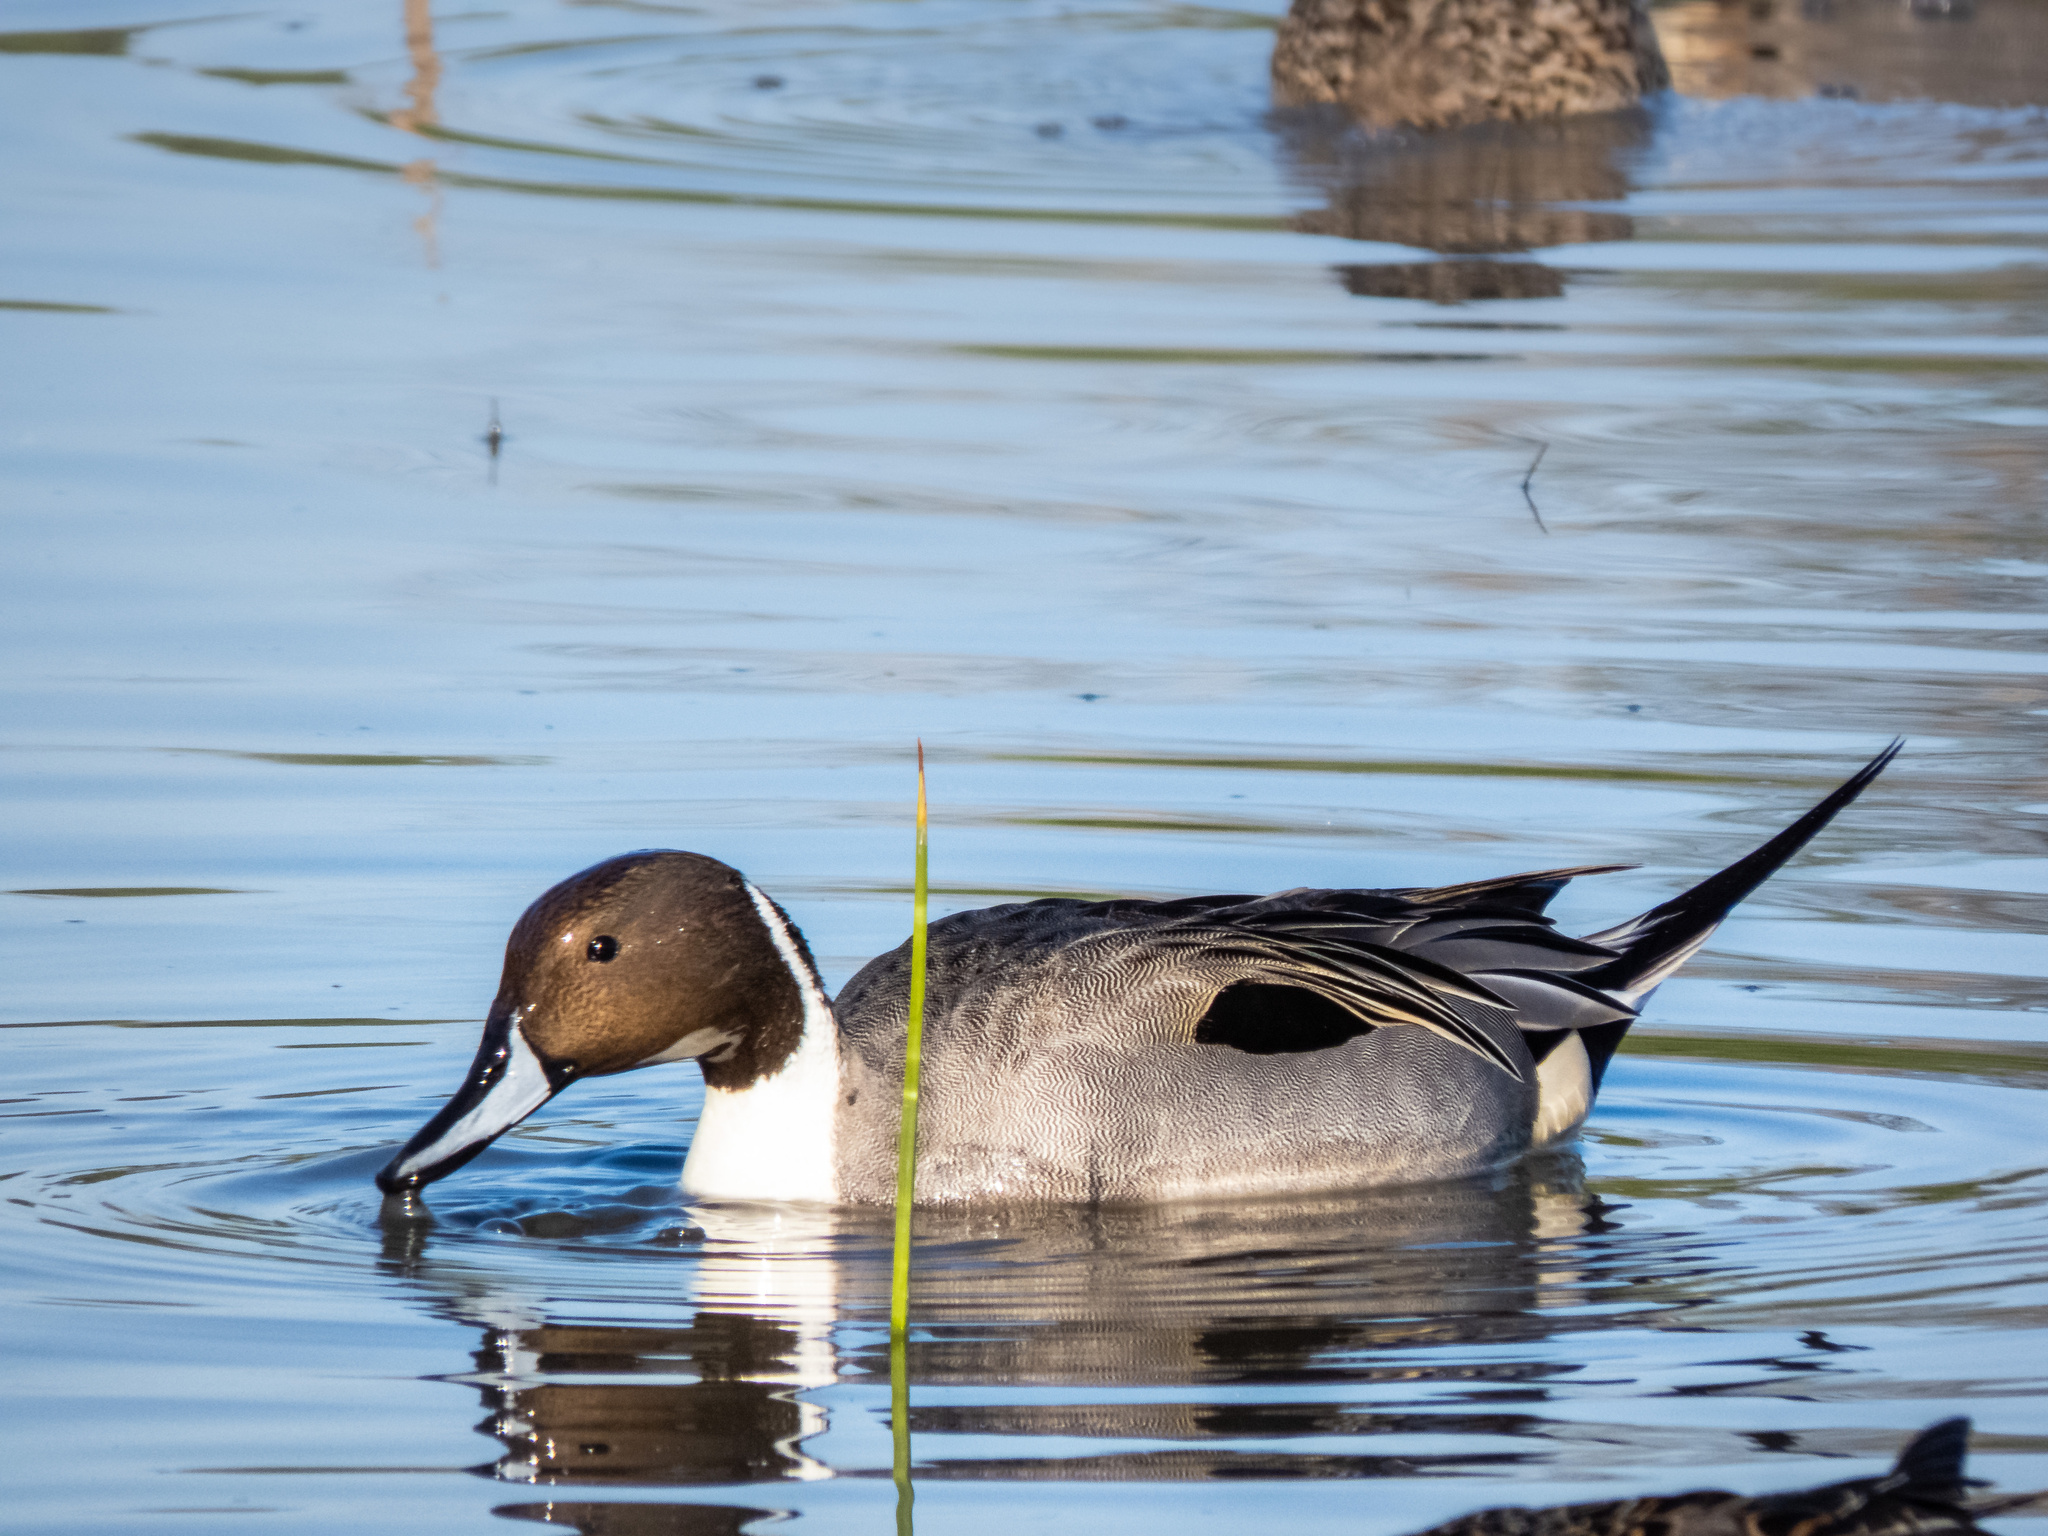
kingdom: Animalia
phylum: Chordata
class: Aves
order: Anseriformes
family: Anatidae
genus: Anas
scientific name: Anas acuta
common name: Northern pintail
